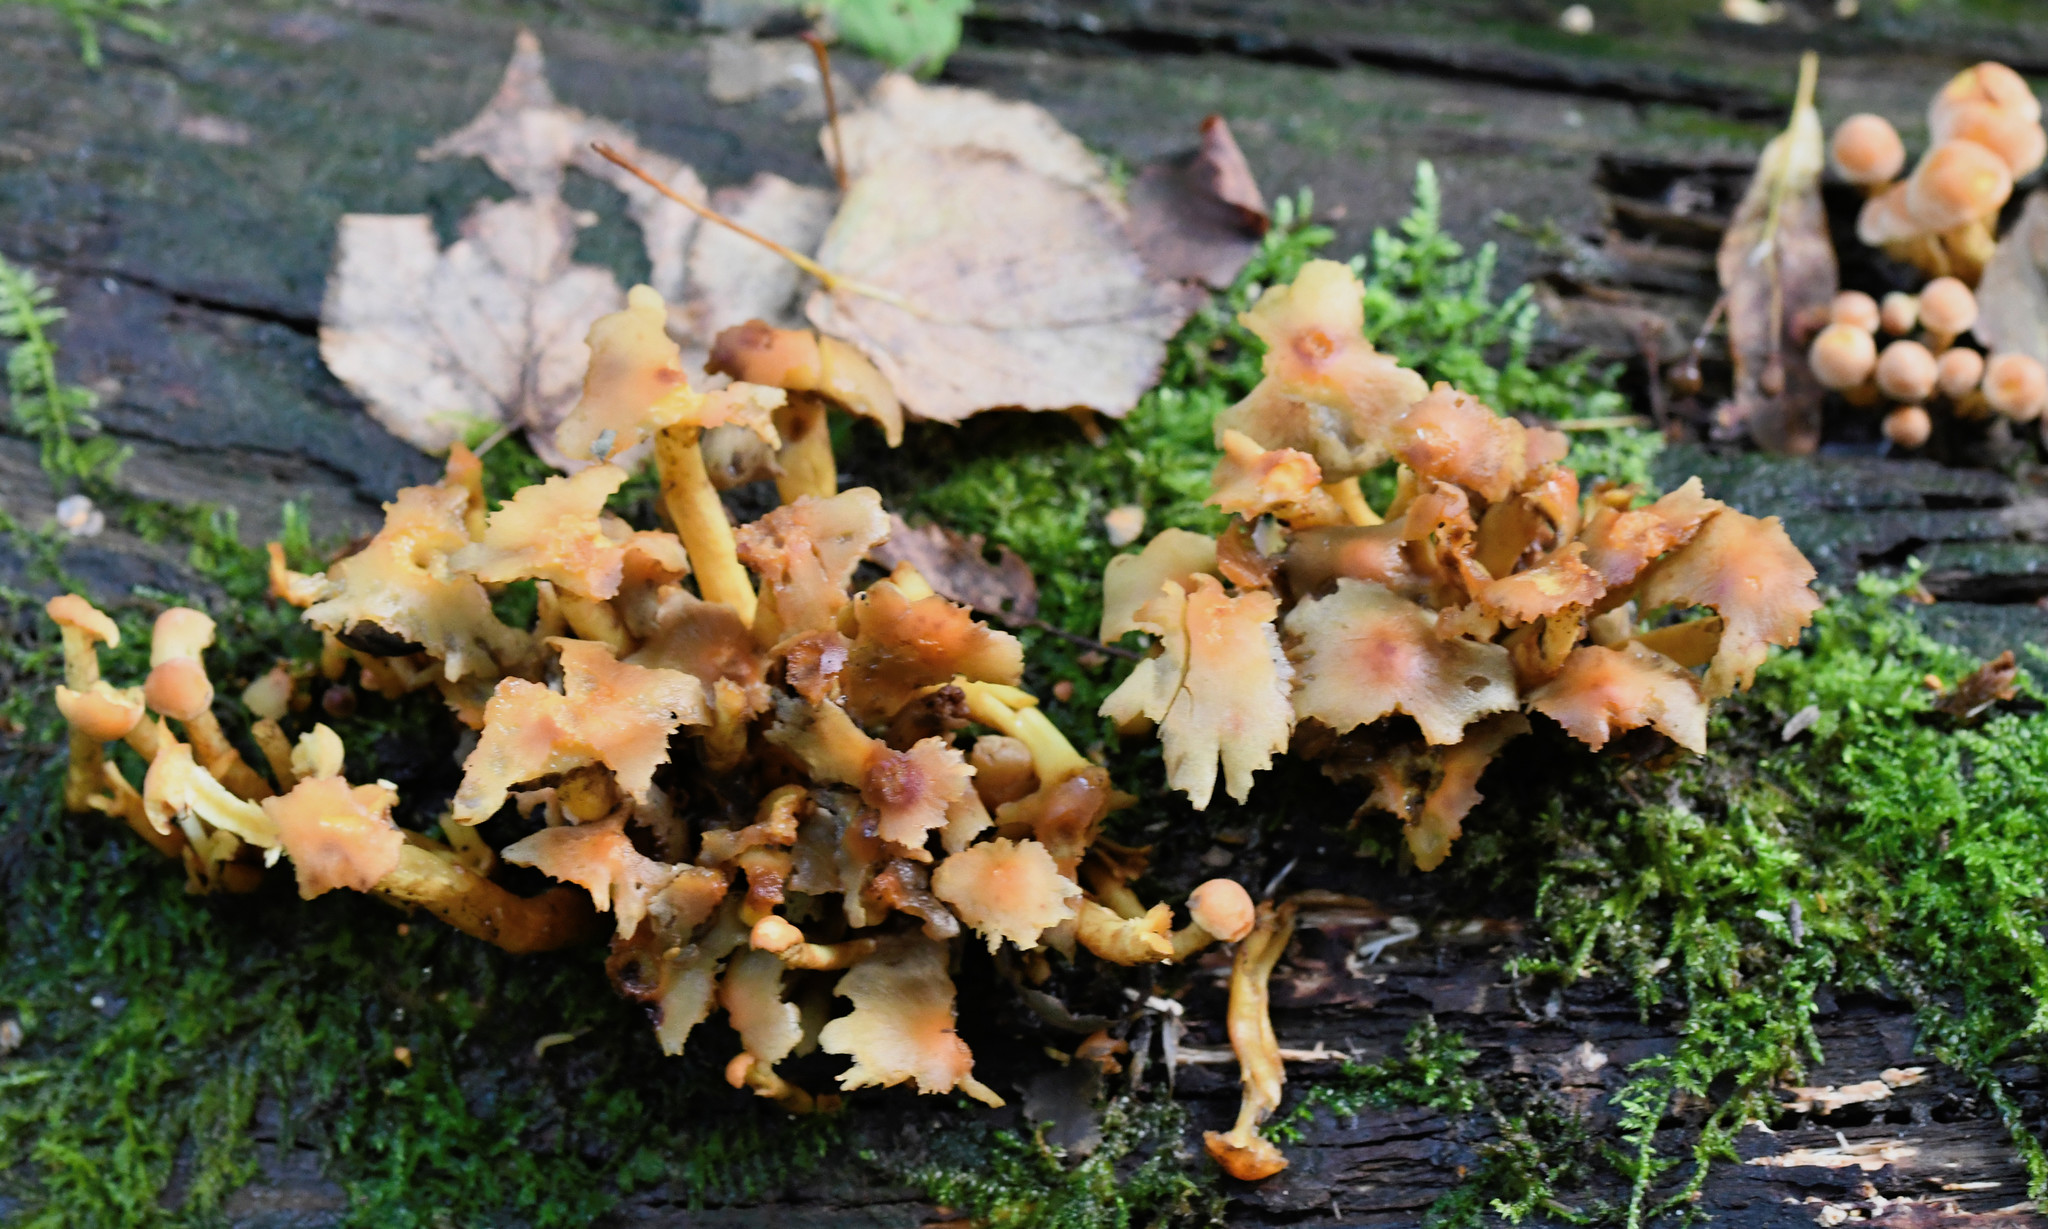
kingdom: Fungi
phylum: Basidiomycota
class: Agaricomycetes
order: Agaricales
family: Strophariaceae
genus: Hypholoma
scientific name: Hypholoma fasciculare
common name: Sulphur tuft
